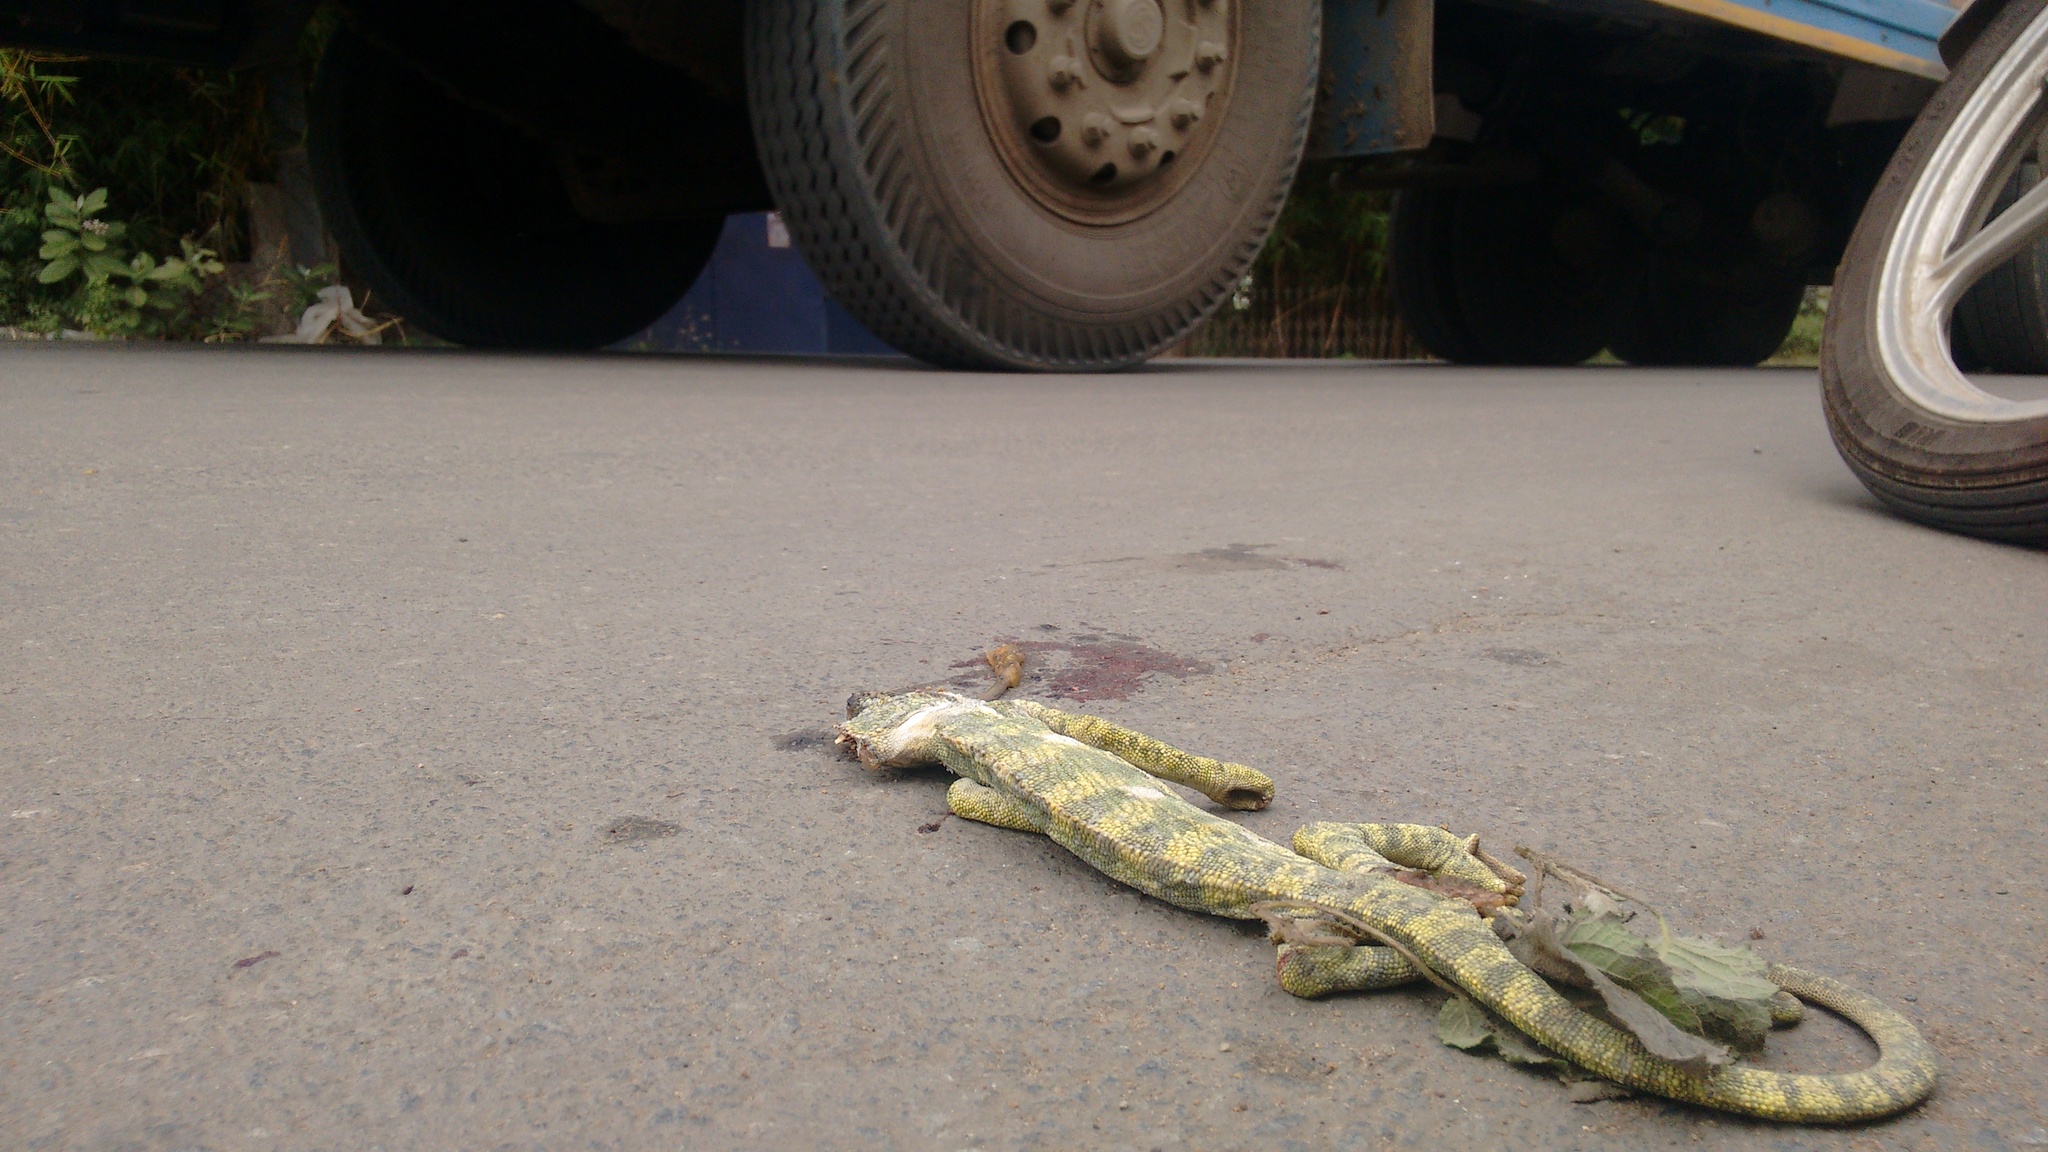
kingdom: Animalia
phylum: Chordata
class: Squamata
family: Chamaeleonidae
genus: Chamaeleo
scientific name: Chamaeleo zeylanicus
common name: Indian chameleon
